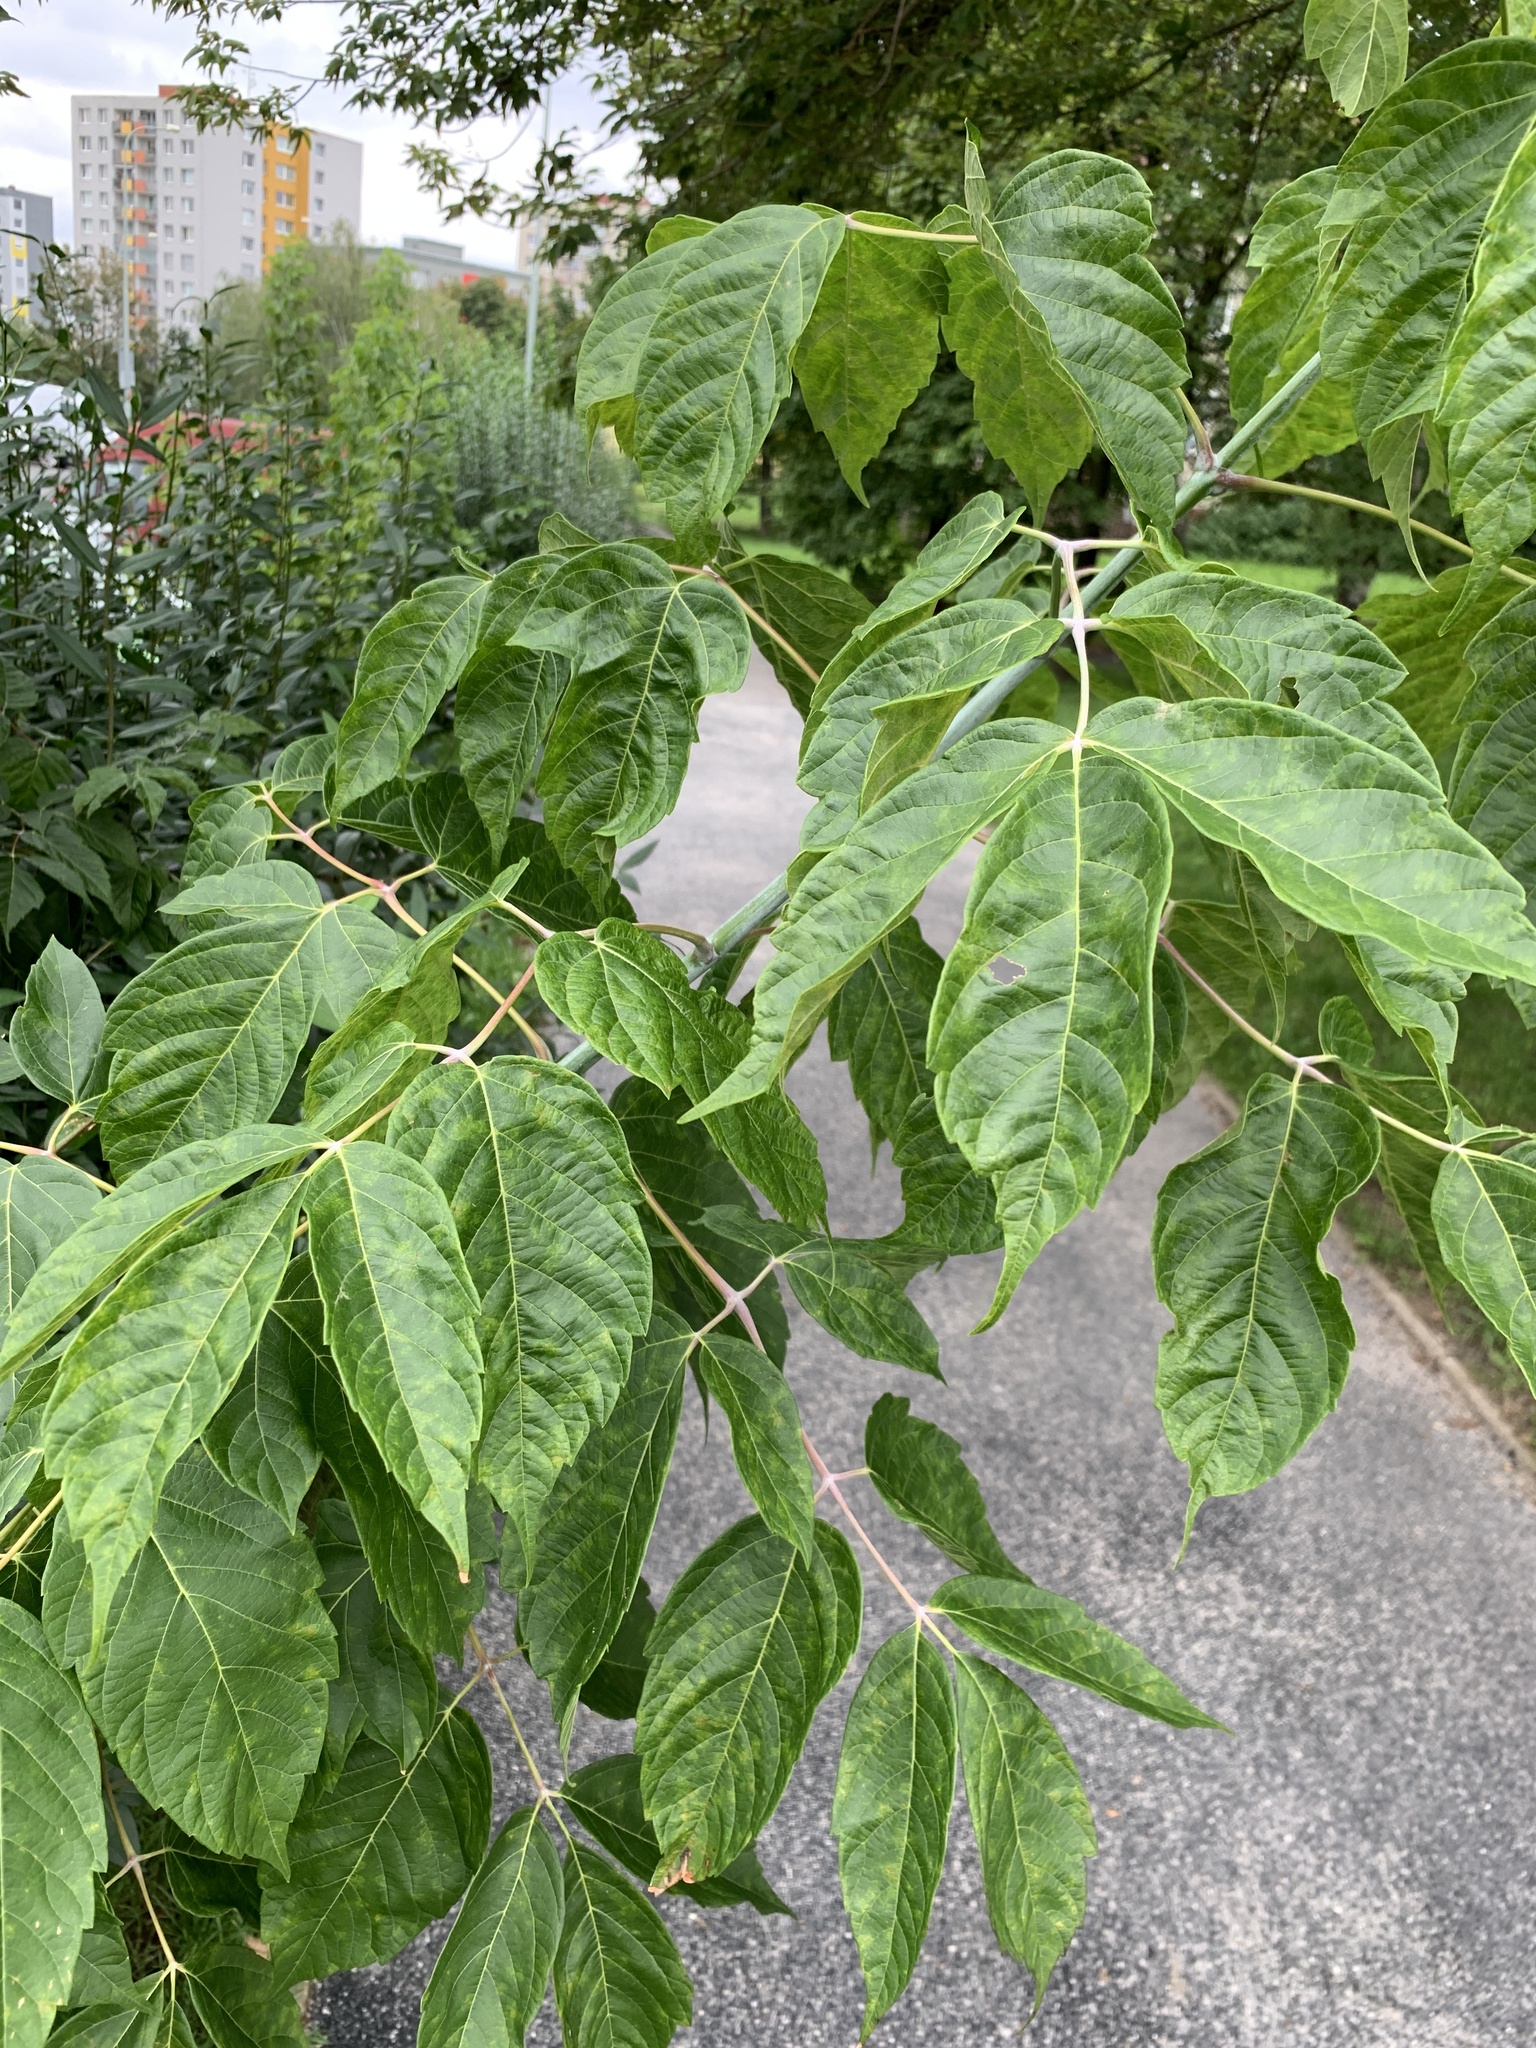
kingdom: Plantae
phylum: Tracheophyta
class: Magnoliopsida
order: Sapindales
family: Sapindaceae
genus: Acer
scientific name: Acer negundo
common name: Ashleaf maple
